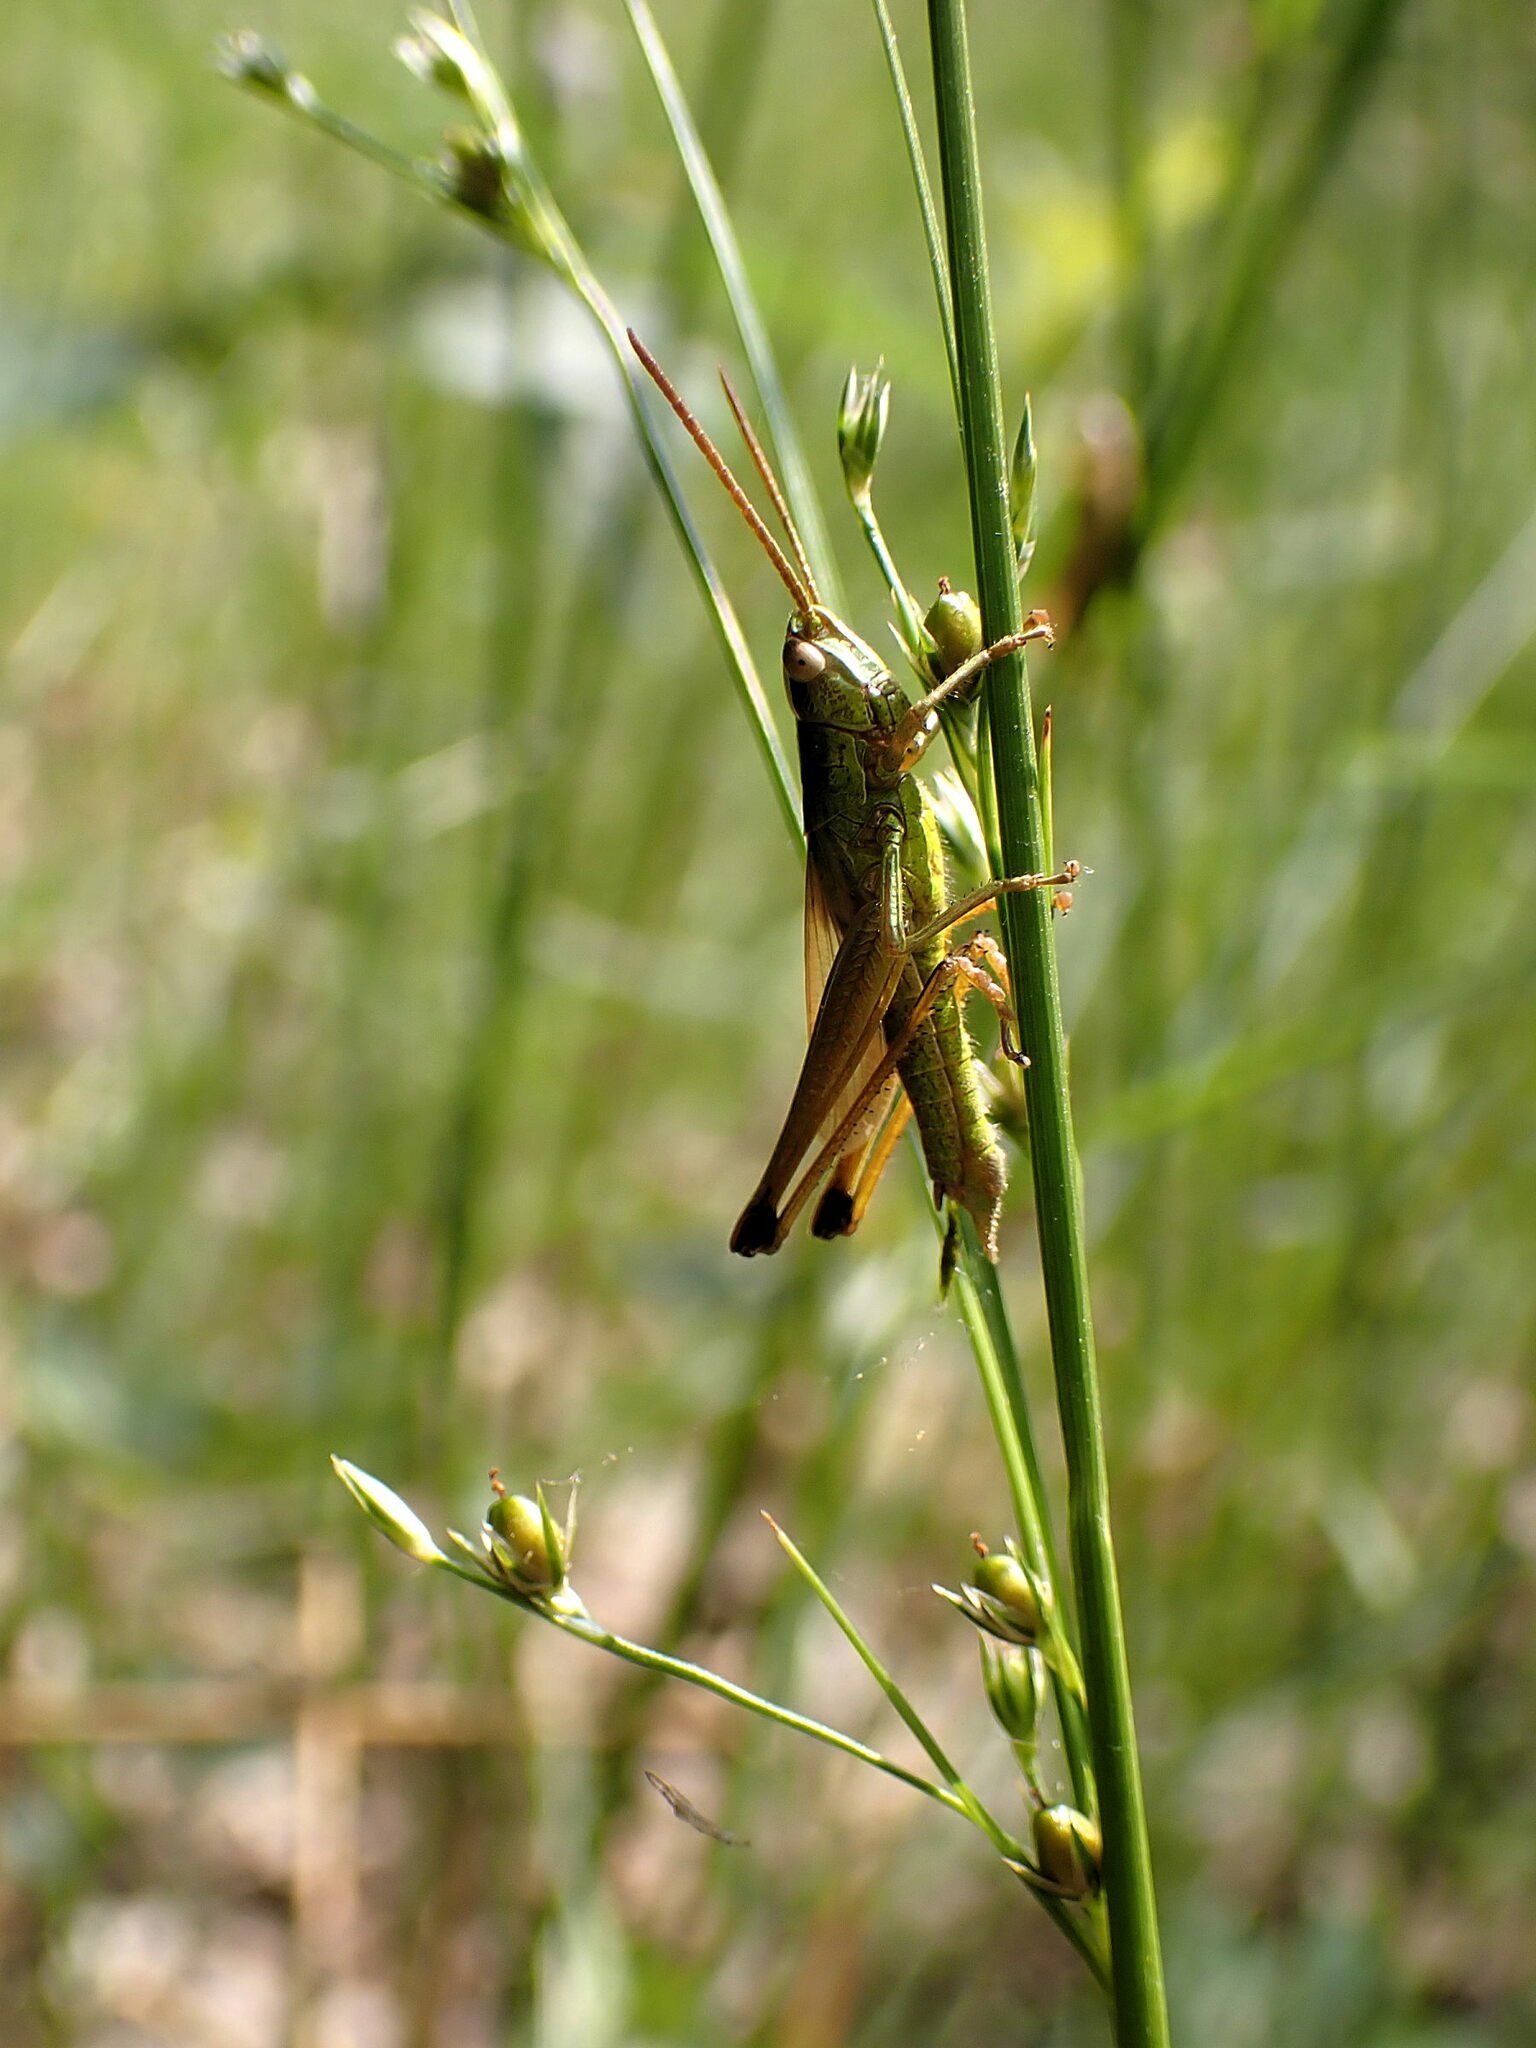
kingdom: Animalia
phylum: Arthropoda
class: Insecta
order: Orthoptera
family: Acrididae
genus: Chrysochraon
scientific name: Chrysochraon dispar
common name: Large gold grasshopper
